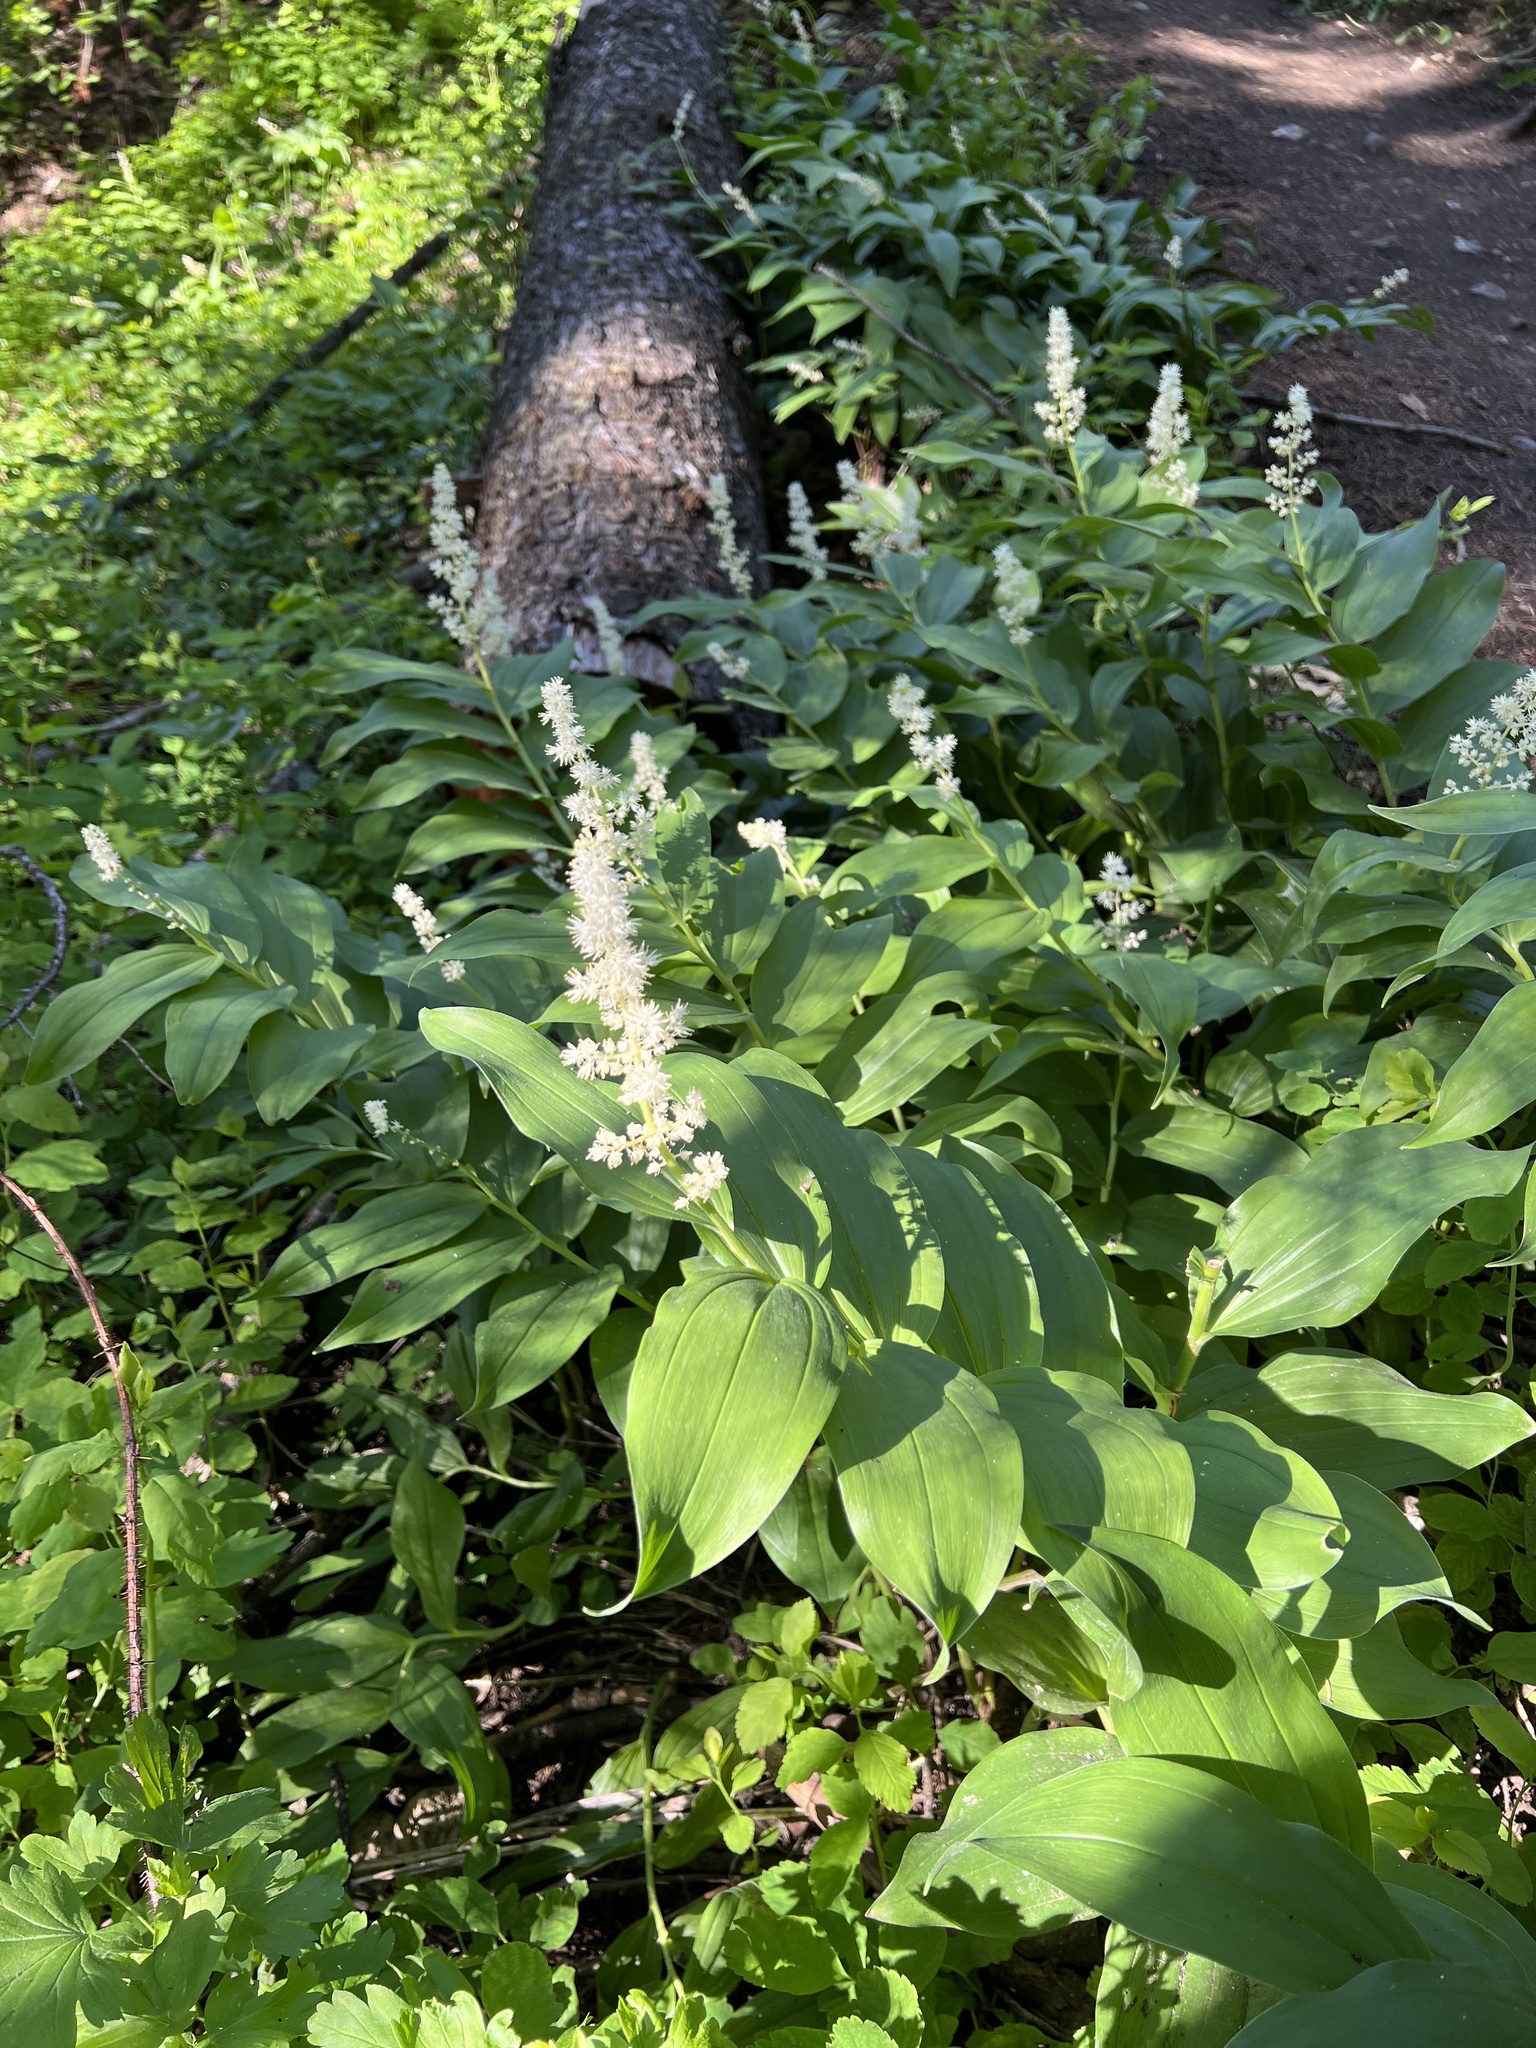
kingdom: Plantae
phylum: Tracheophyta
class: Liliopsida
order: Asparagales
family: Asparagaceae
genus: Maianthemum
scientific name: Maianthemum racemosum
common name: False spikenard
